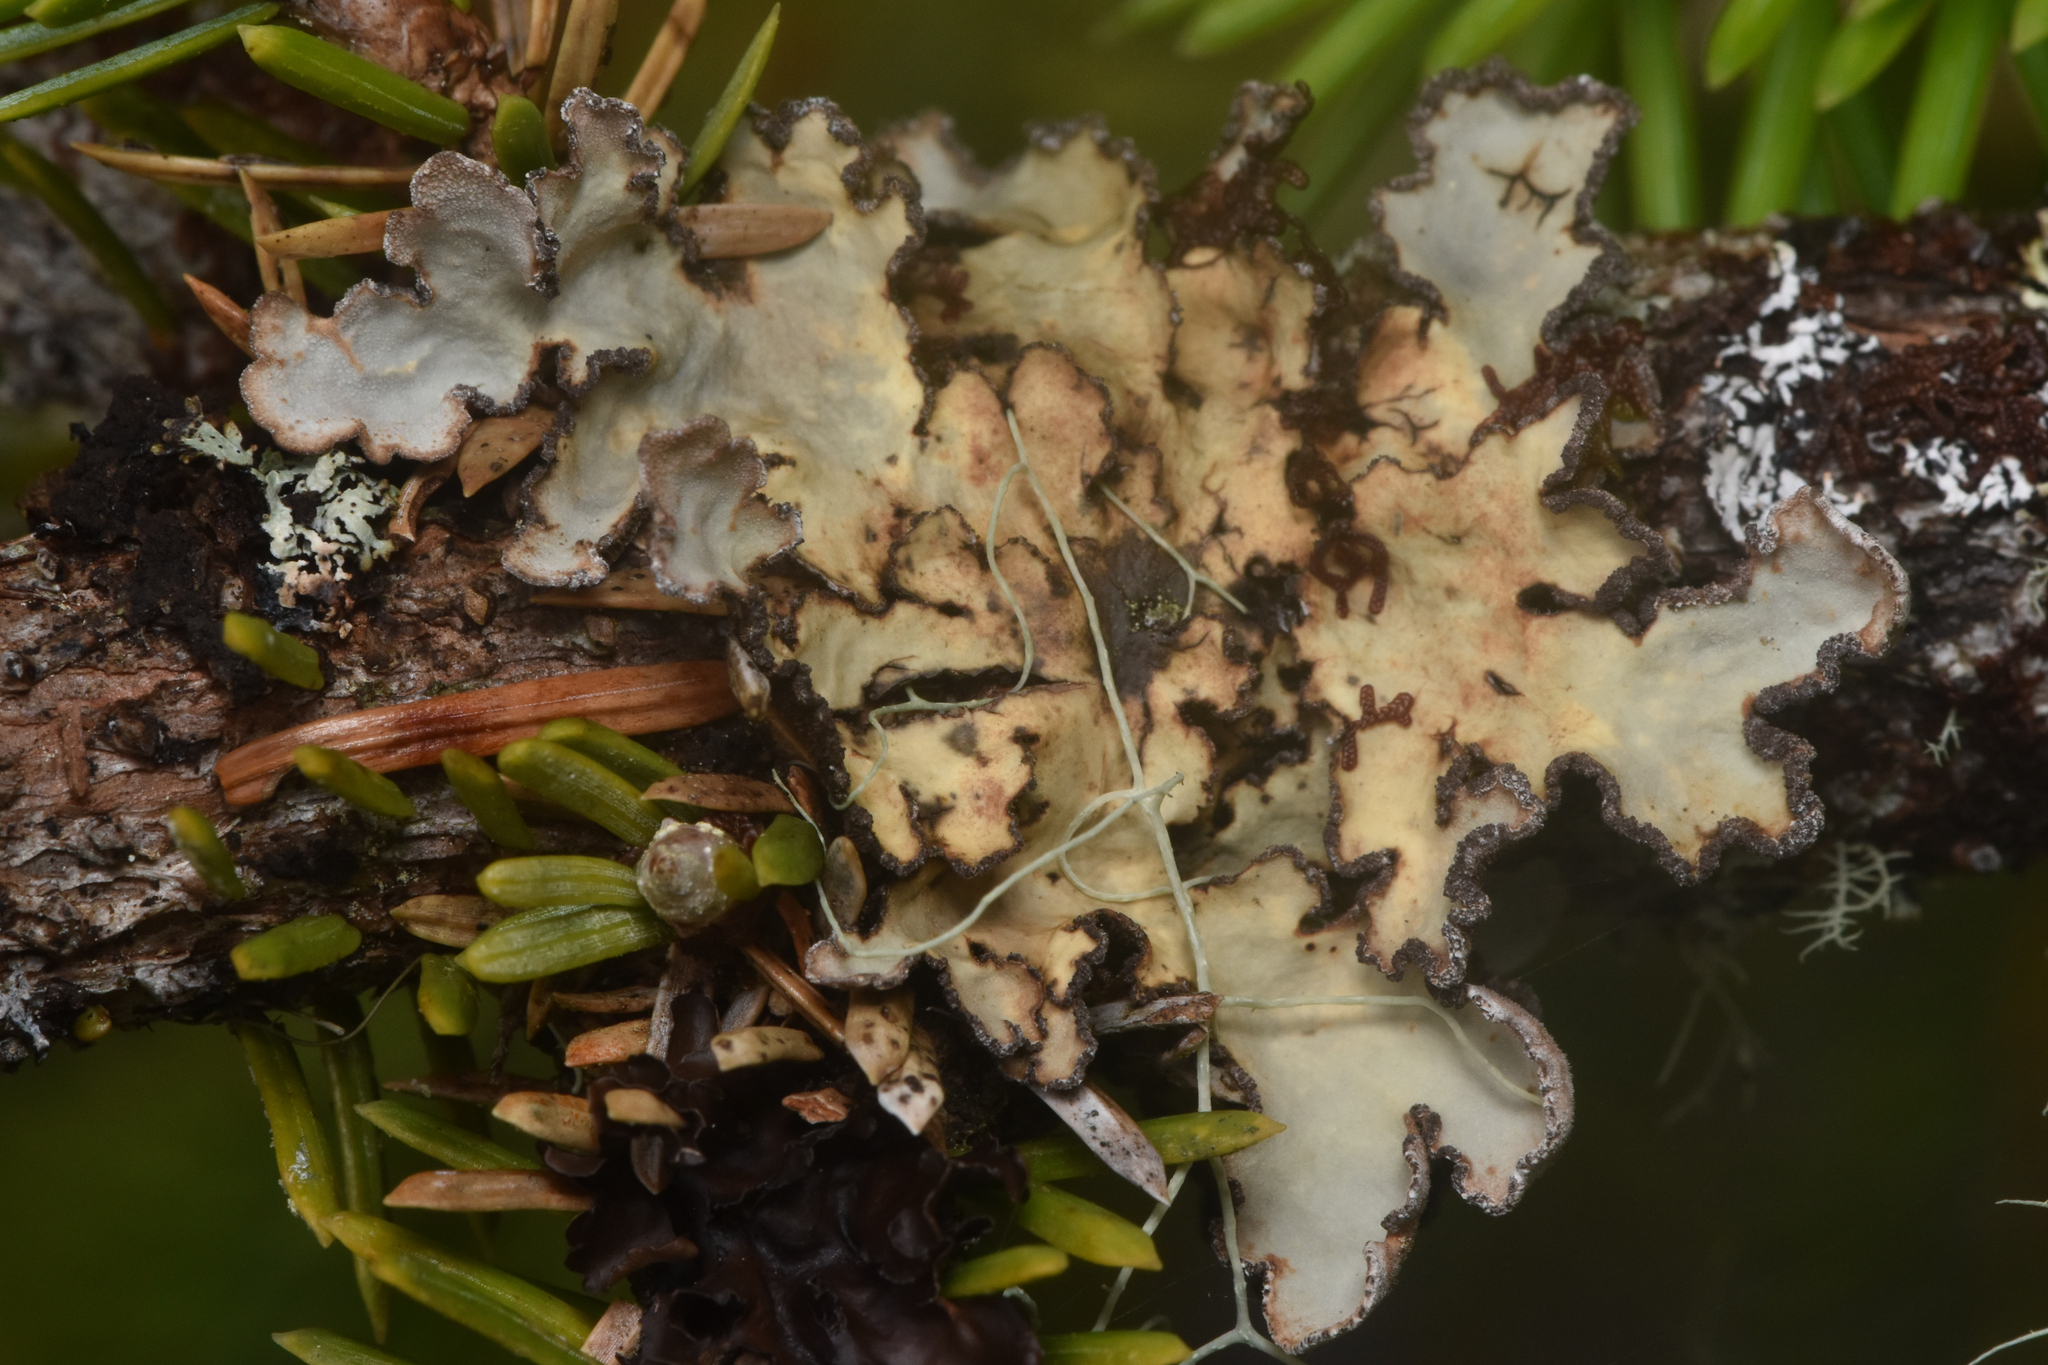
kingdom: Fungi
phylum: Ascomycota
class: Lecanoromycetes
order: Peltigerales
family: Lobariaceae
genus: Lobarina
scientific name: Lobarina scrobiculata
